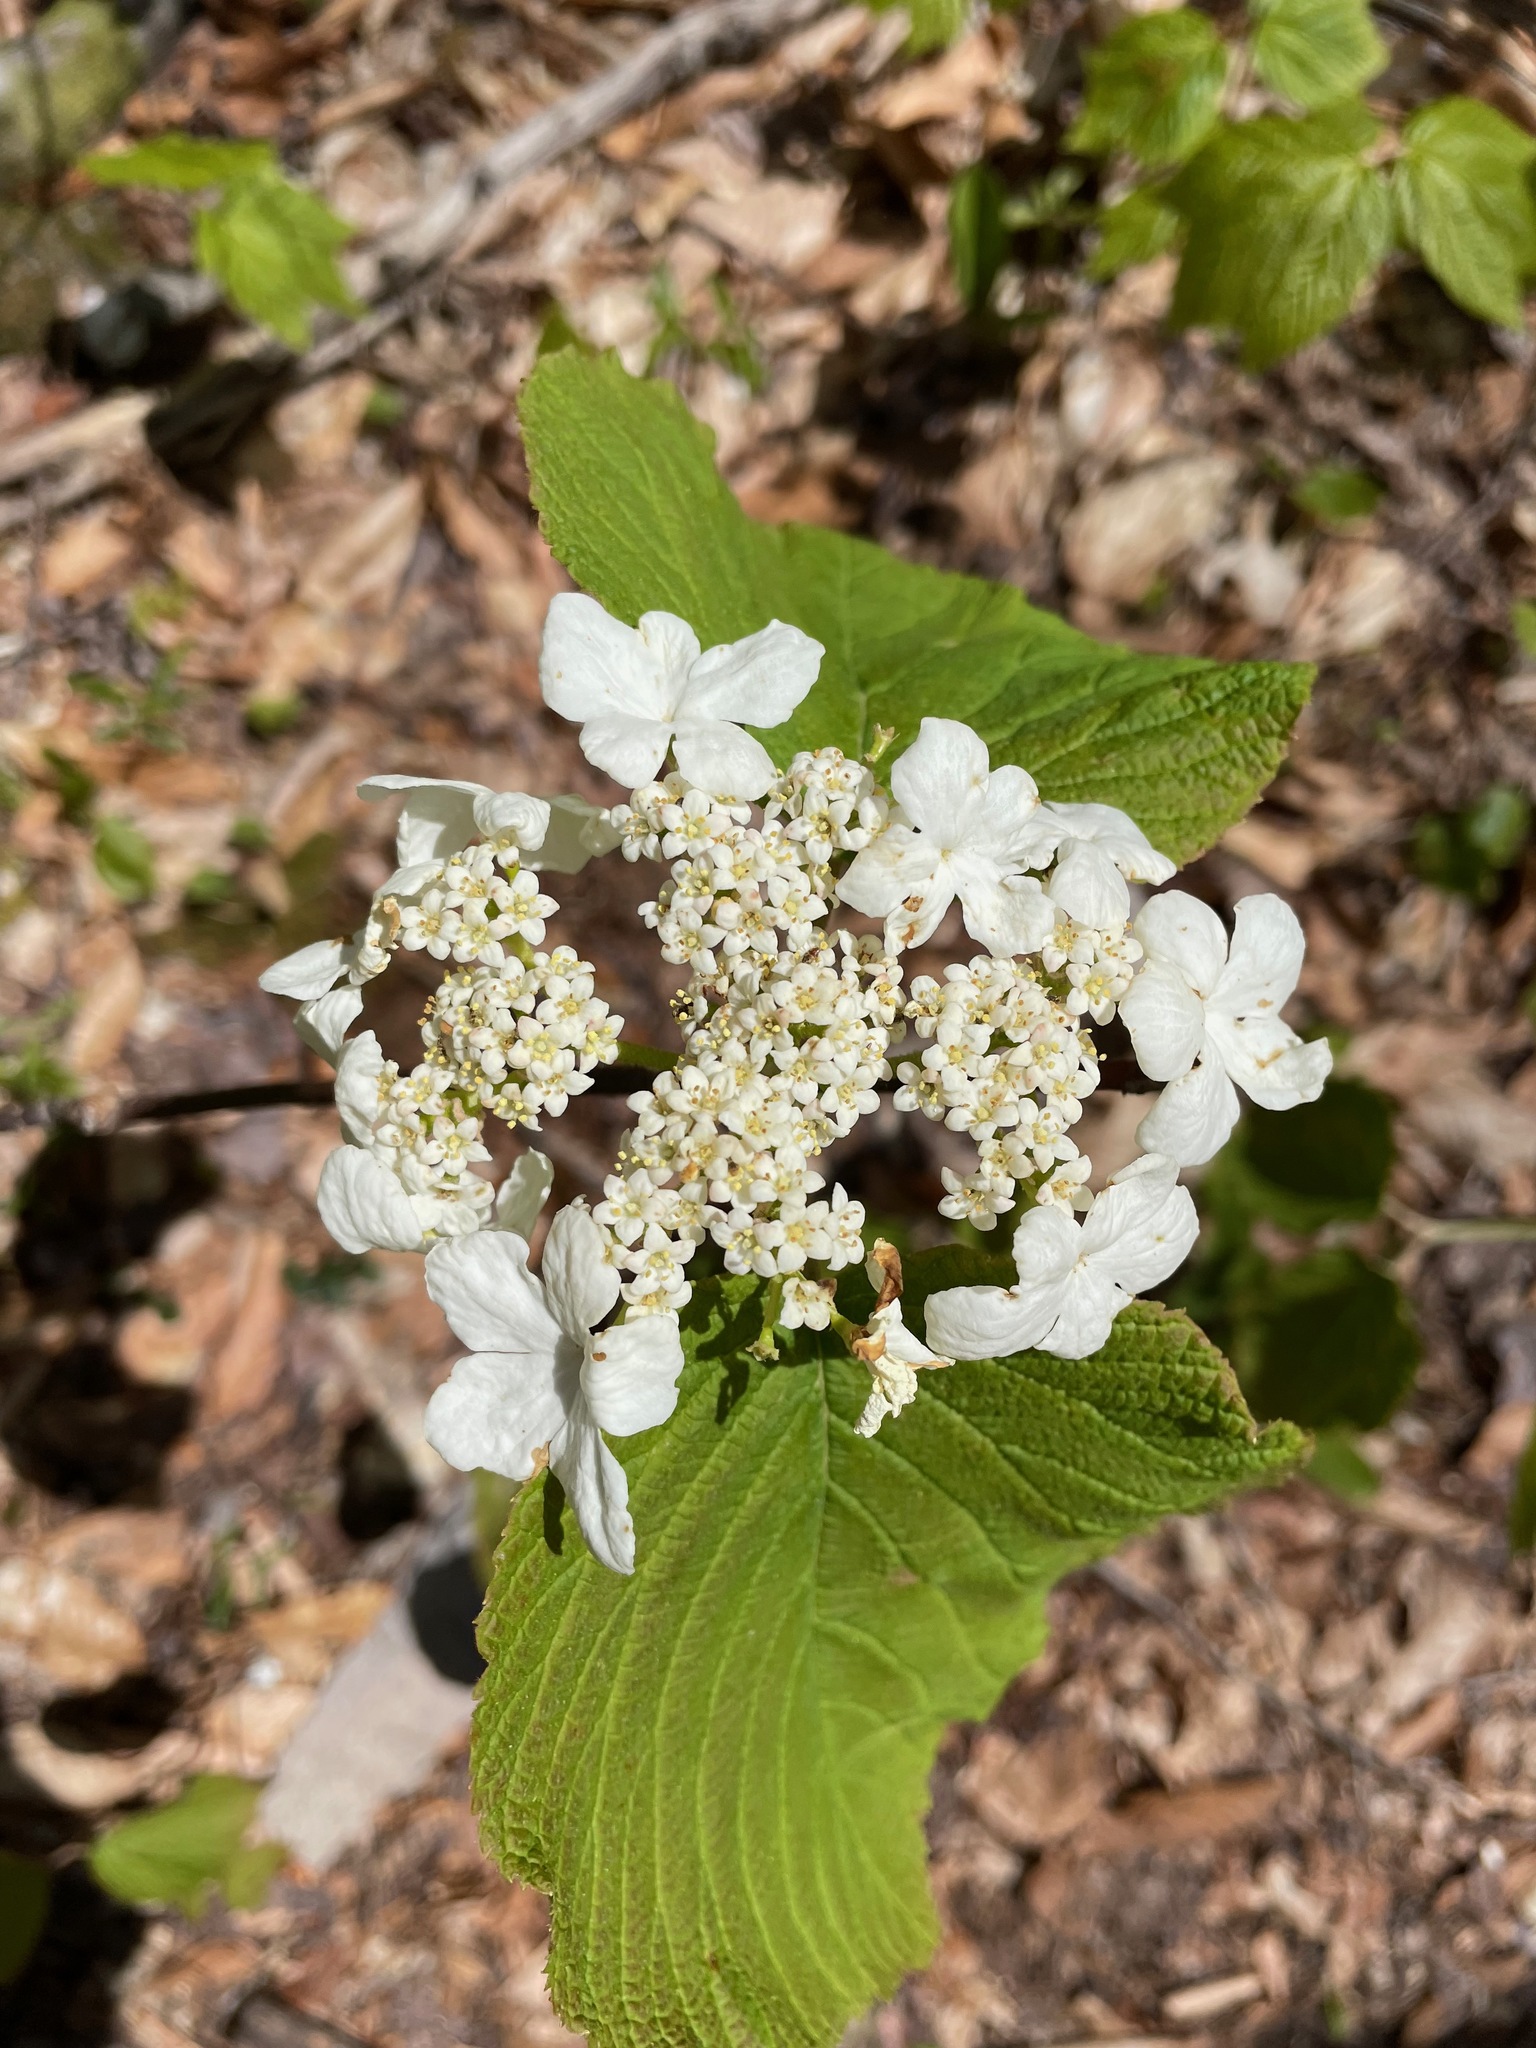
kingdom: Plantae
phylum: Tracheophyta
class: Magnoliopsida
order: Dipsacales
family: Viburnaceae
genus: Viburnum
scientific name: Viburnum lantanoides
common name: Hobblebush
